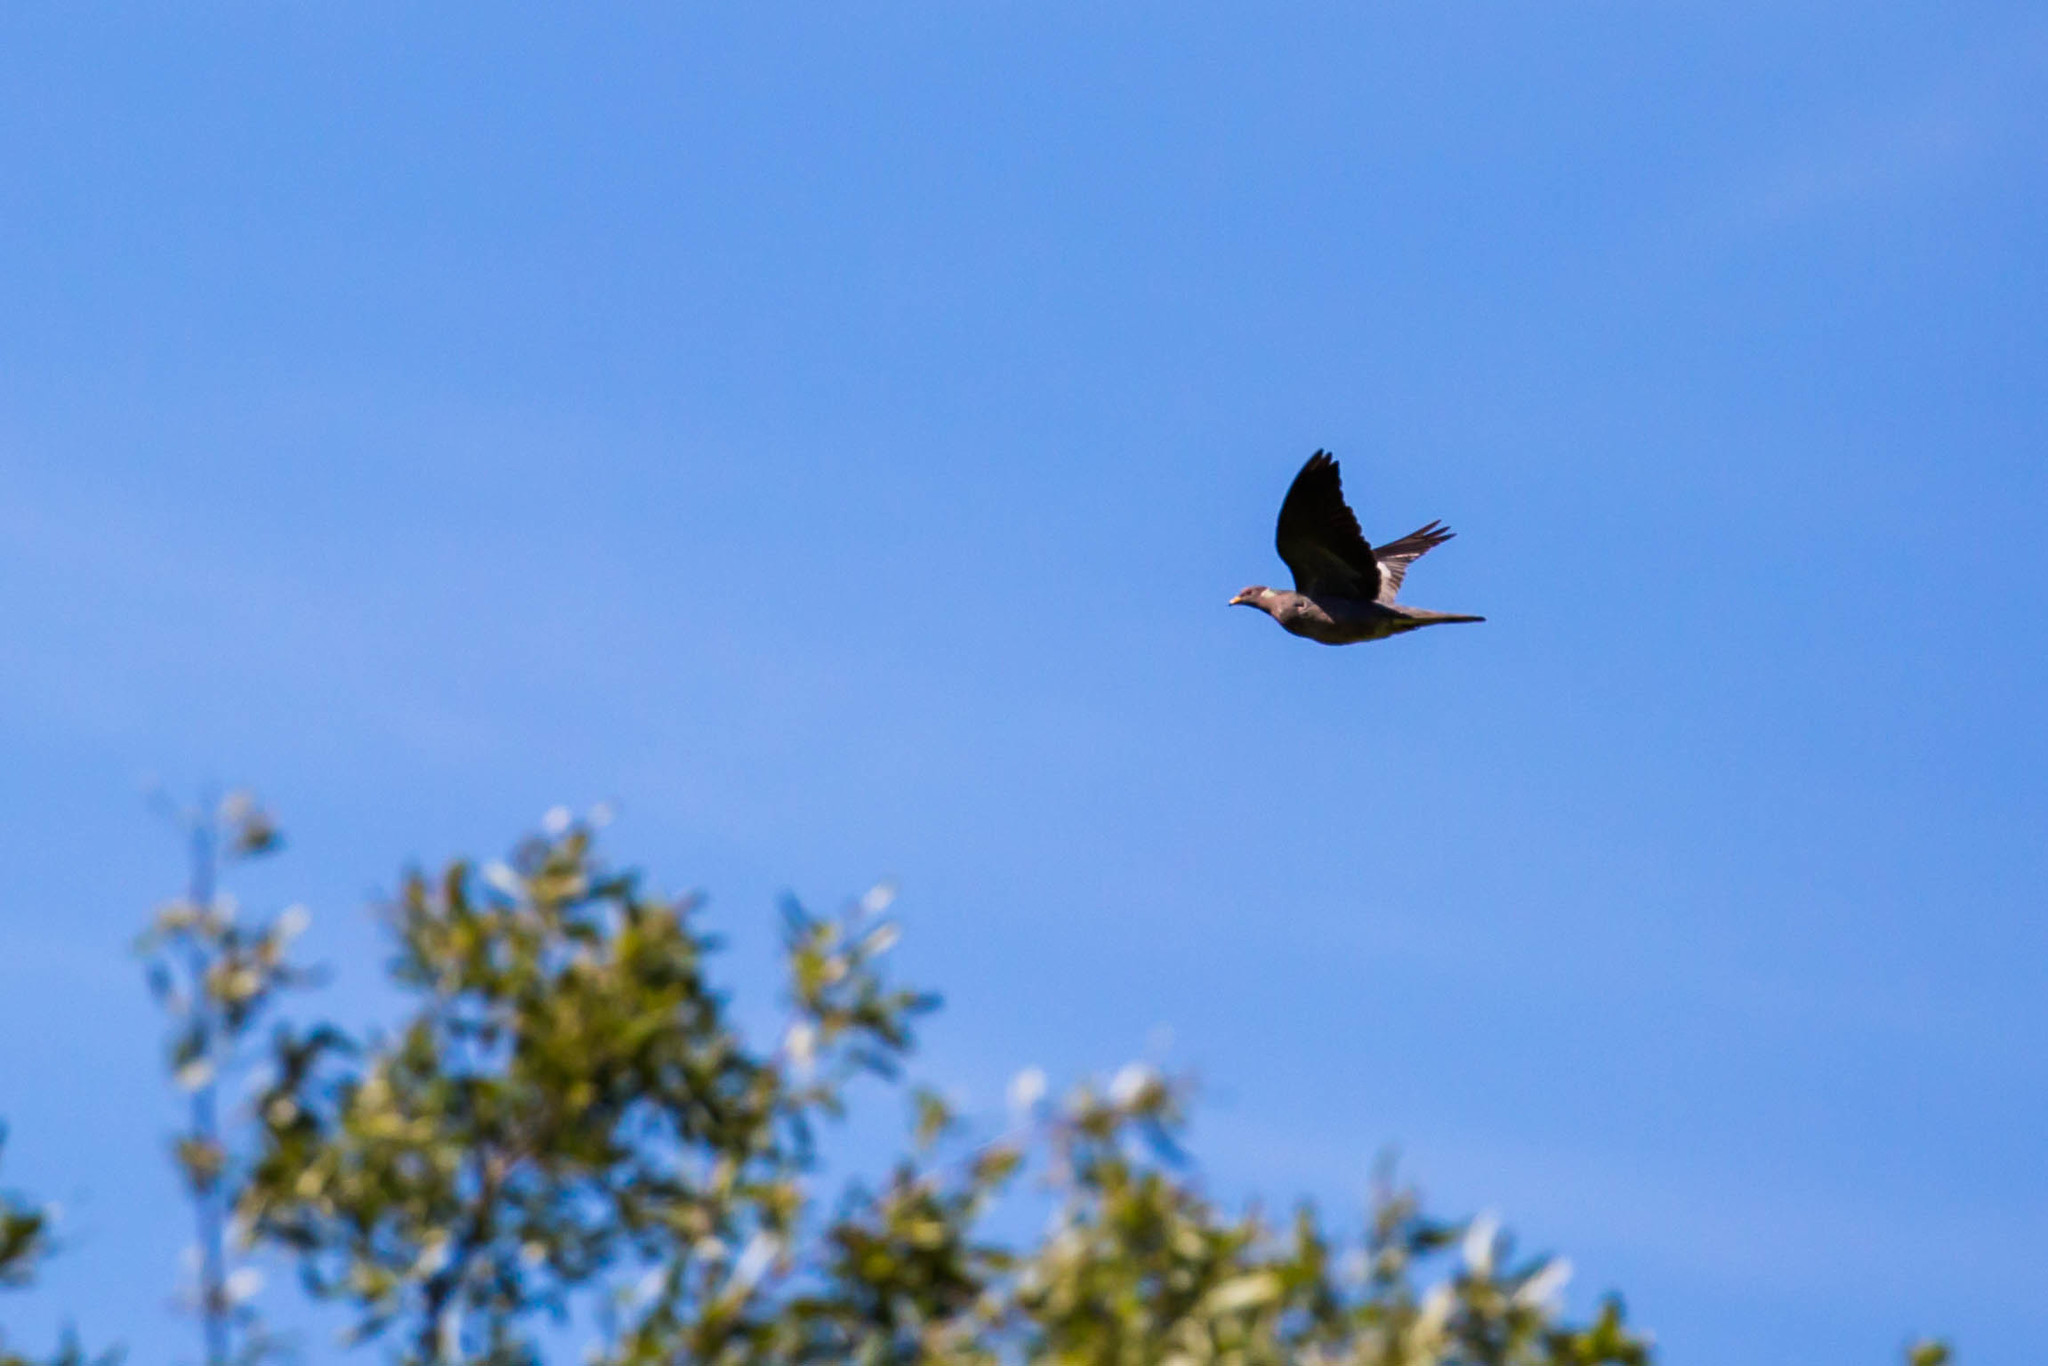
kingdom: Animalia
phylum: Chordata
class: Aves
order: Columbiformes
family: Columbidae
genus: Patagioenas
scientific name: Patagioenas fasciata
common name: Band-tailed pigeon
